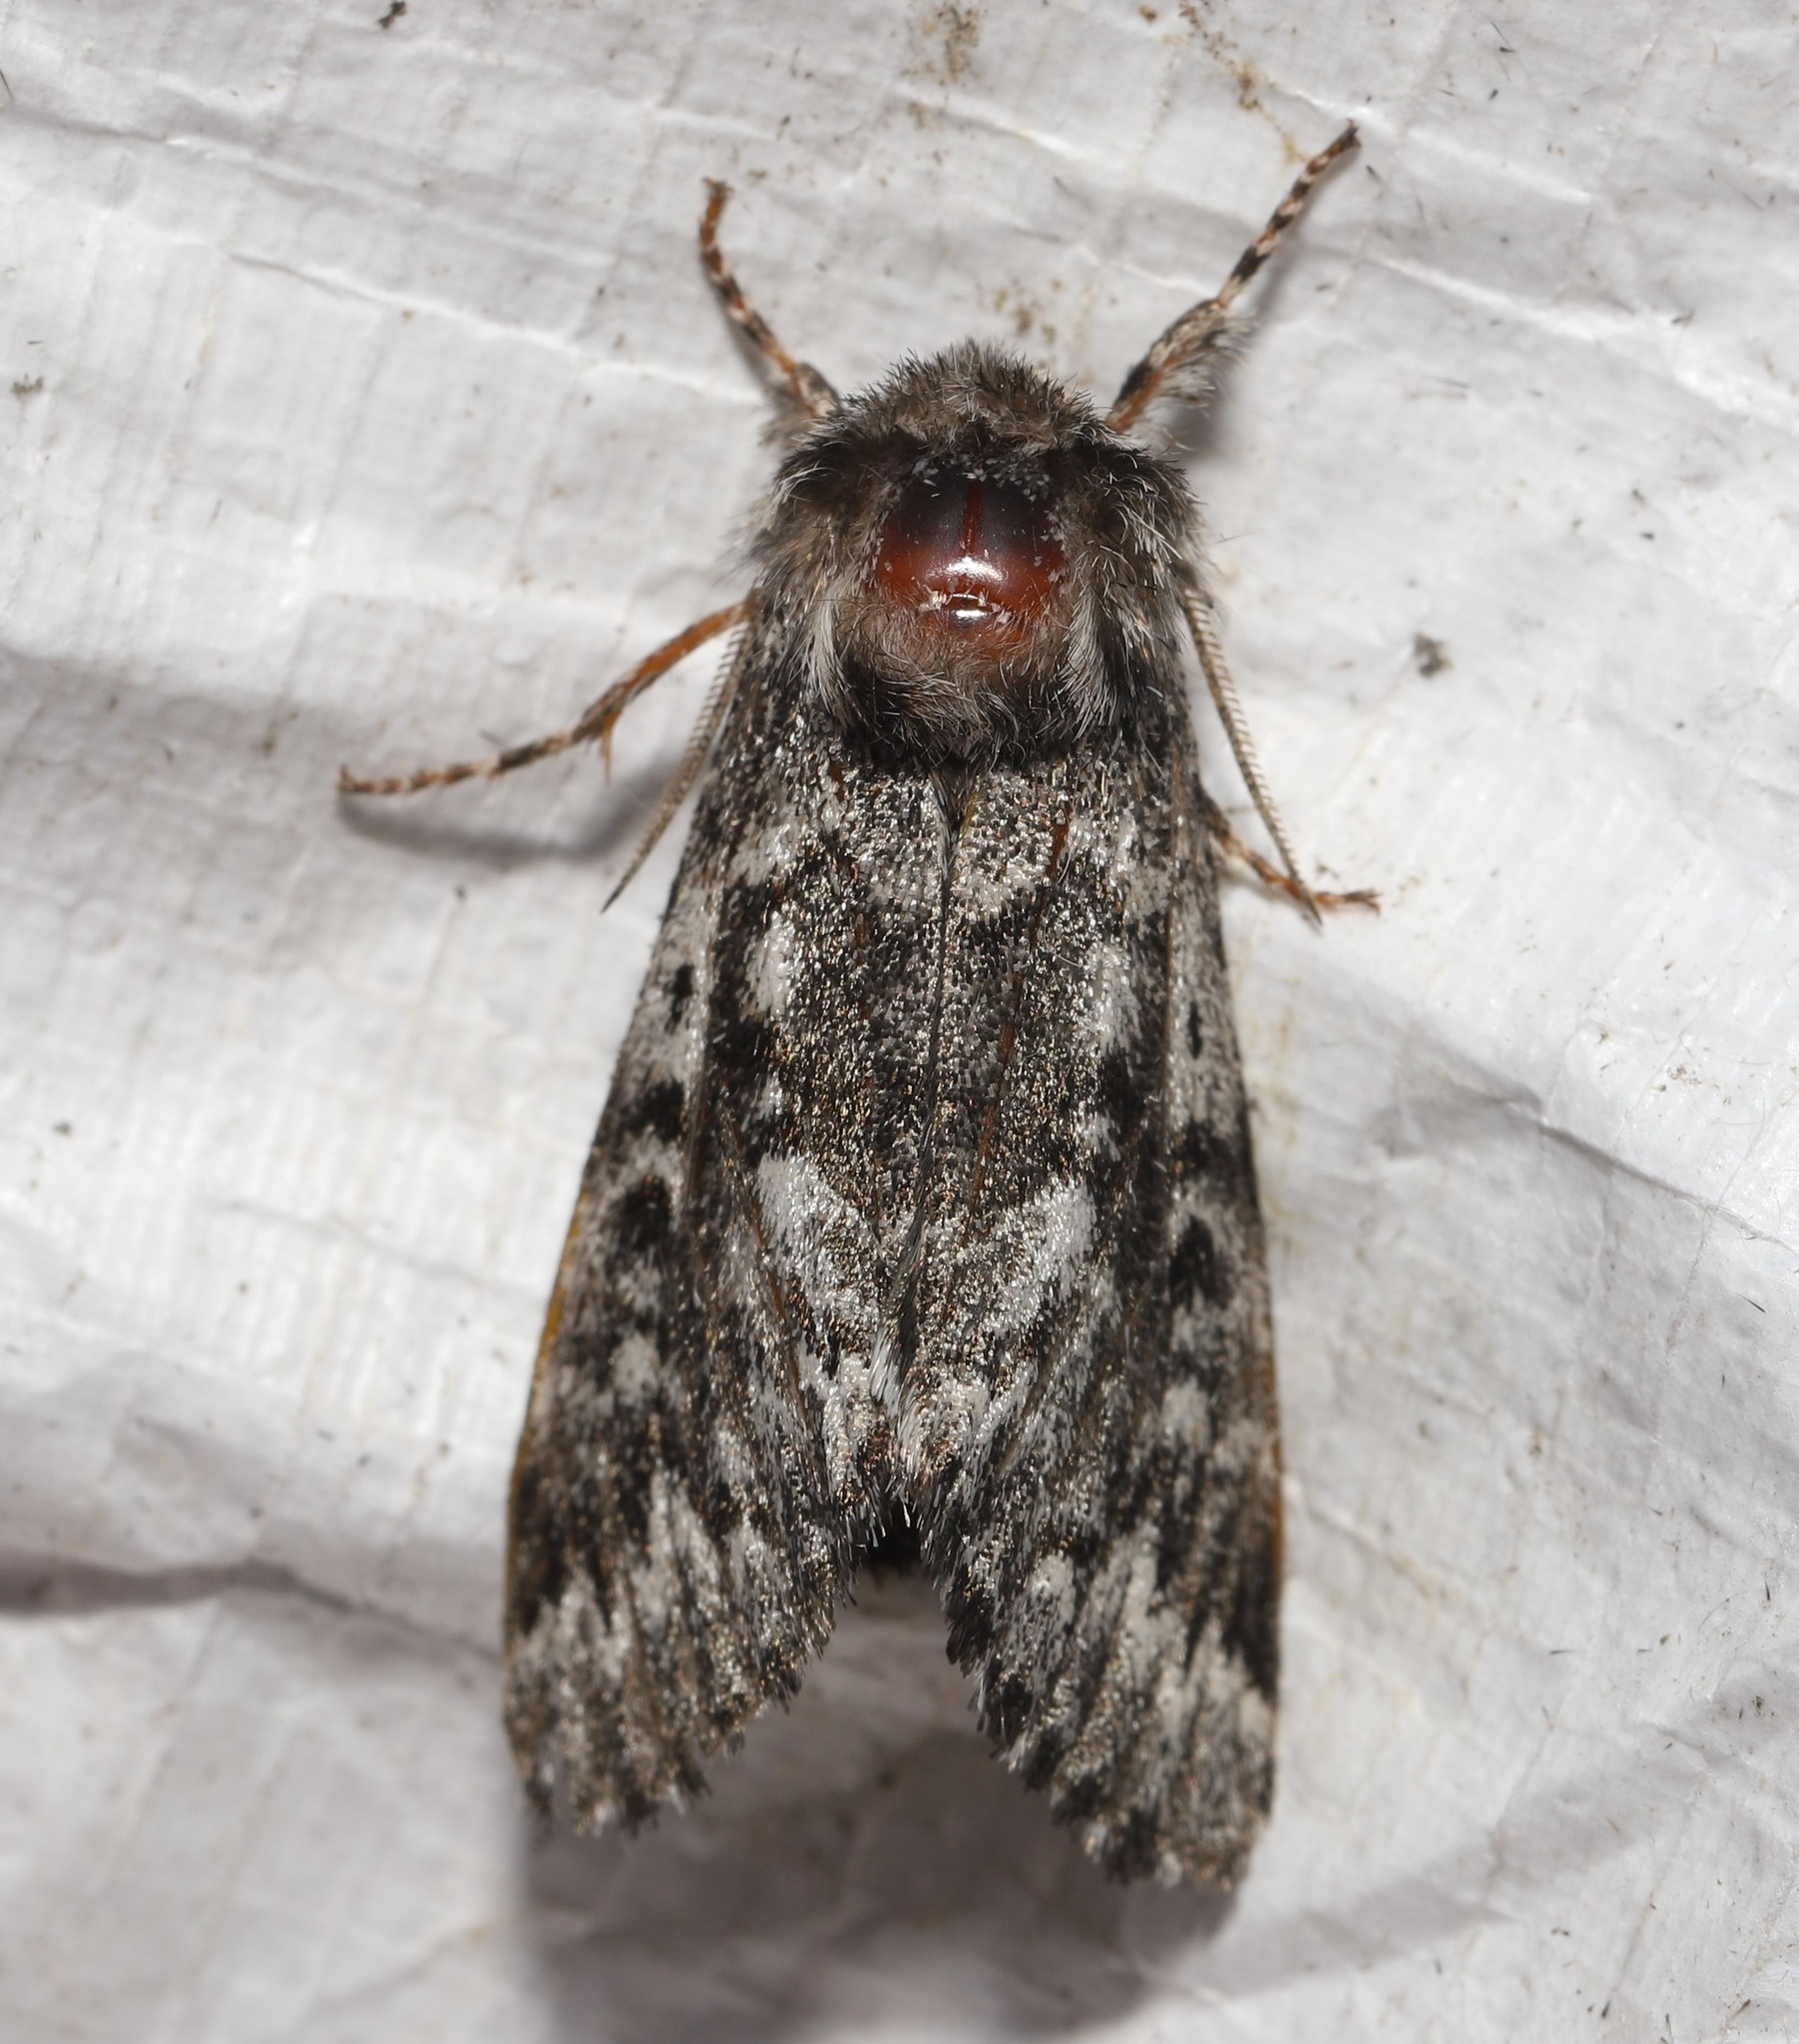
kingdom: Animalia
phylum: Arthropoda
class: Insecta
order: Lepidoptera
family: Noctuidae
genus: Panthea
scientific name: Panthea acronyctoides
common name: Black zigzag moth
